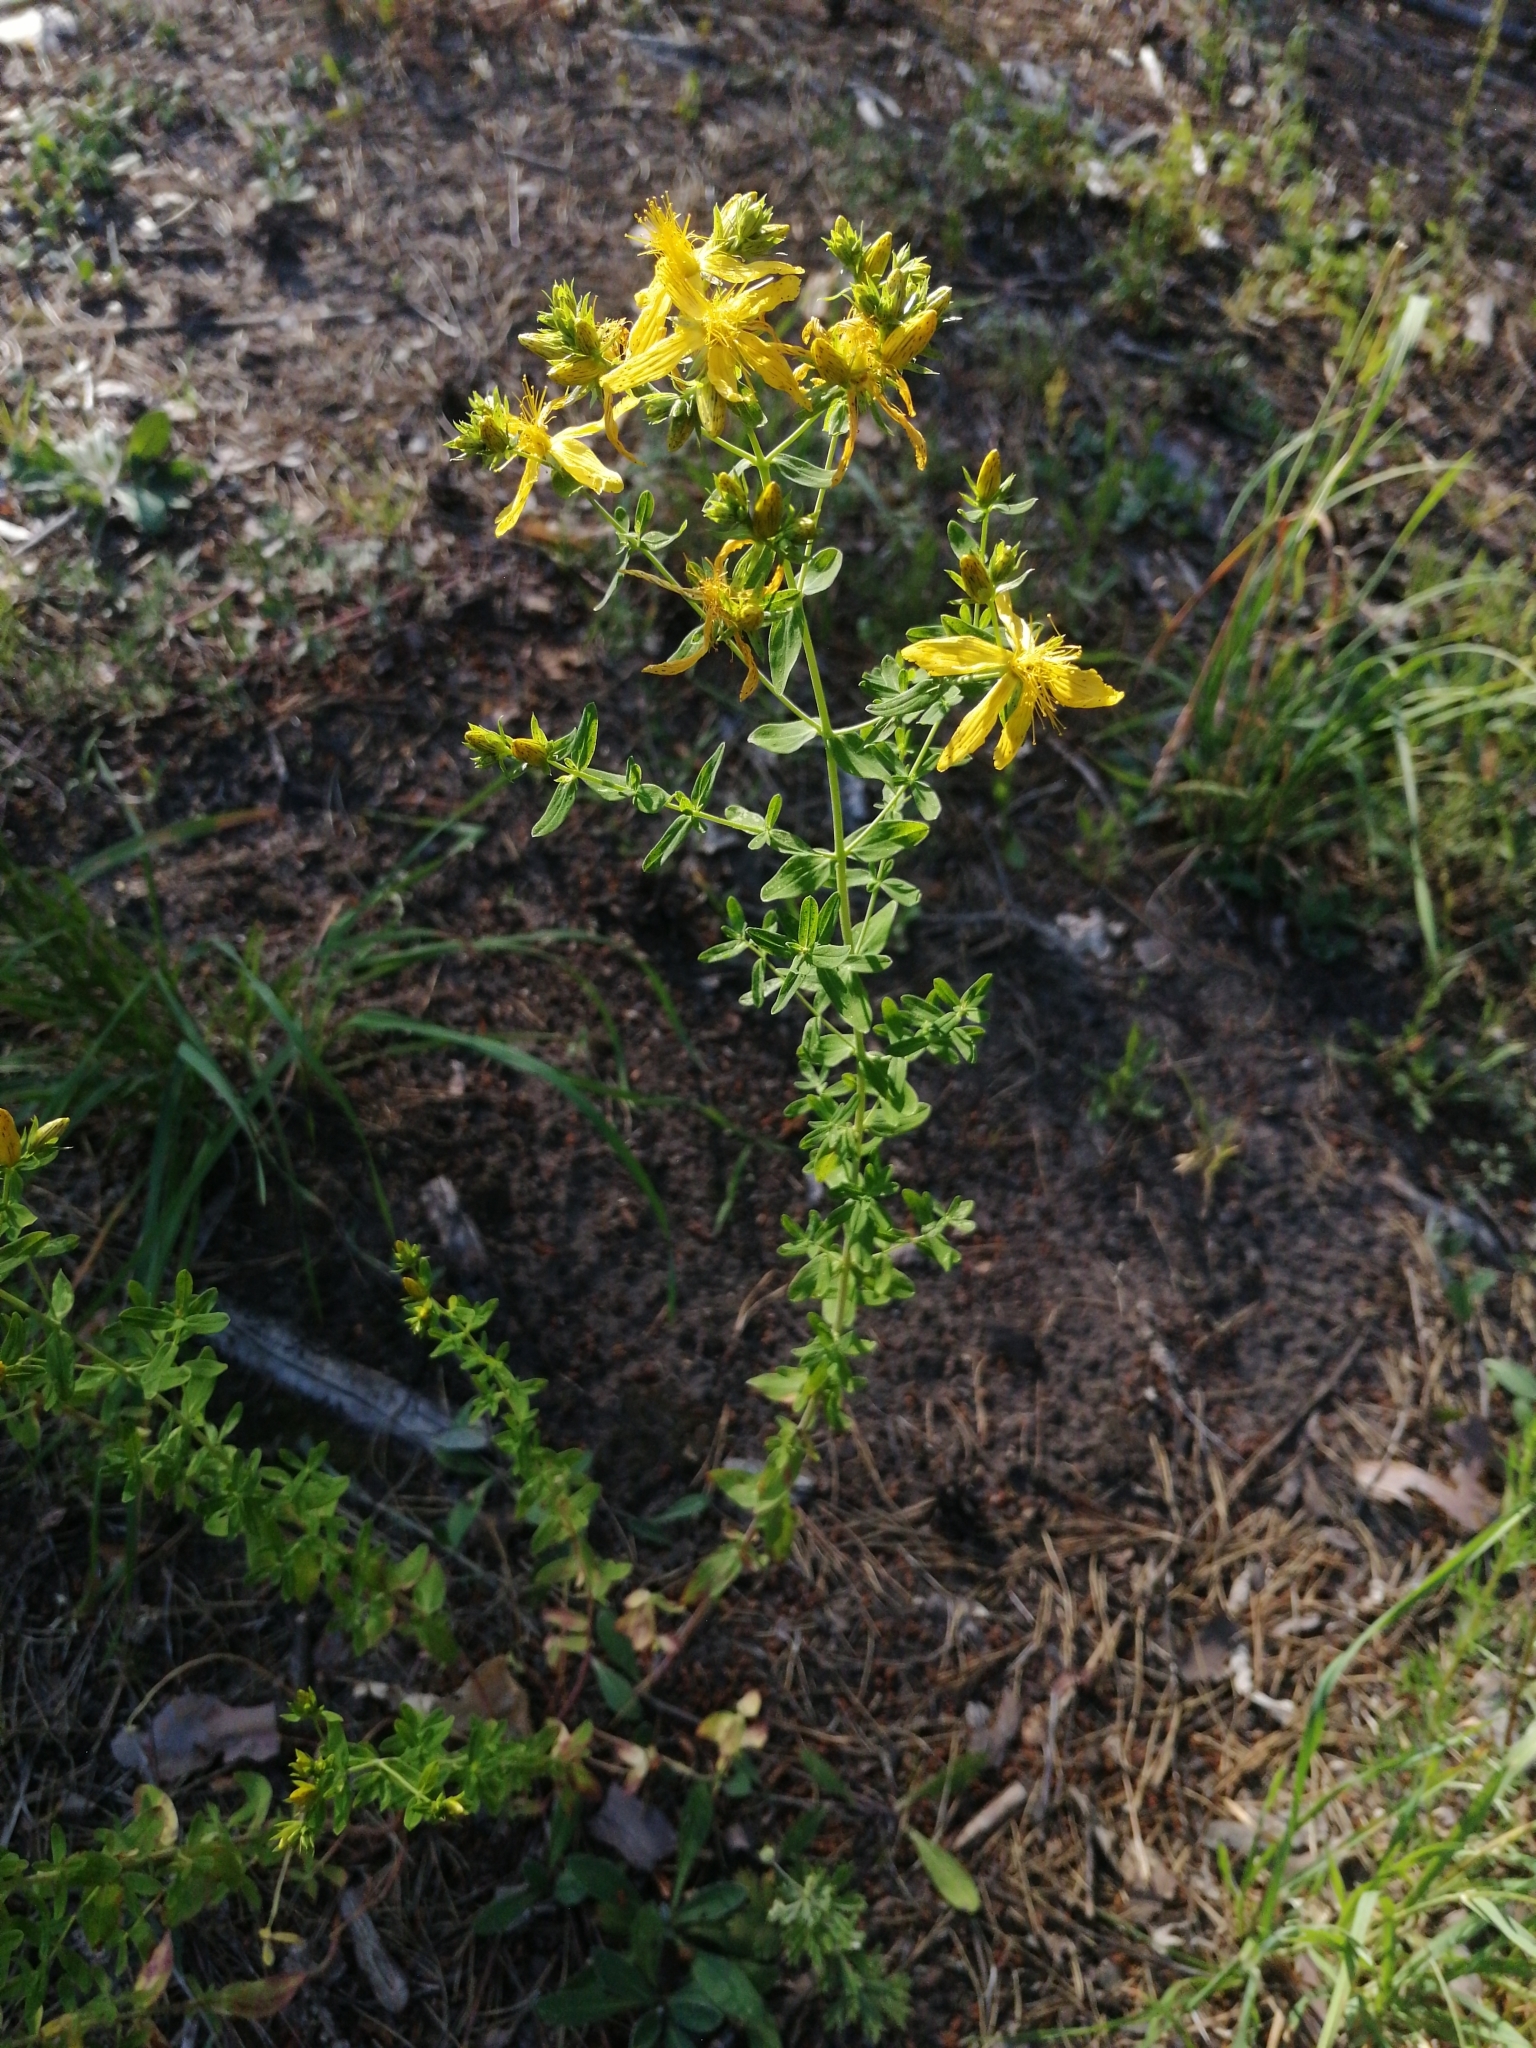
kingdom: Plantae
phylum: Tracheophyta
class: Magnoliopsida
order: Malpighiales
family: Hypericaceae
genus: Hypericum
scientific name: Hypericum perforatum
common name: Common st. johnswort
